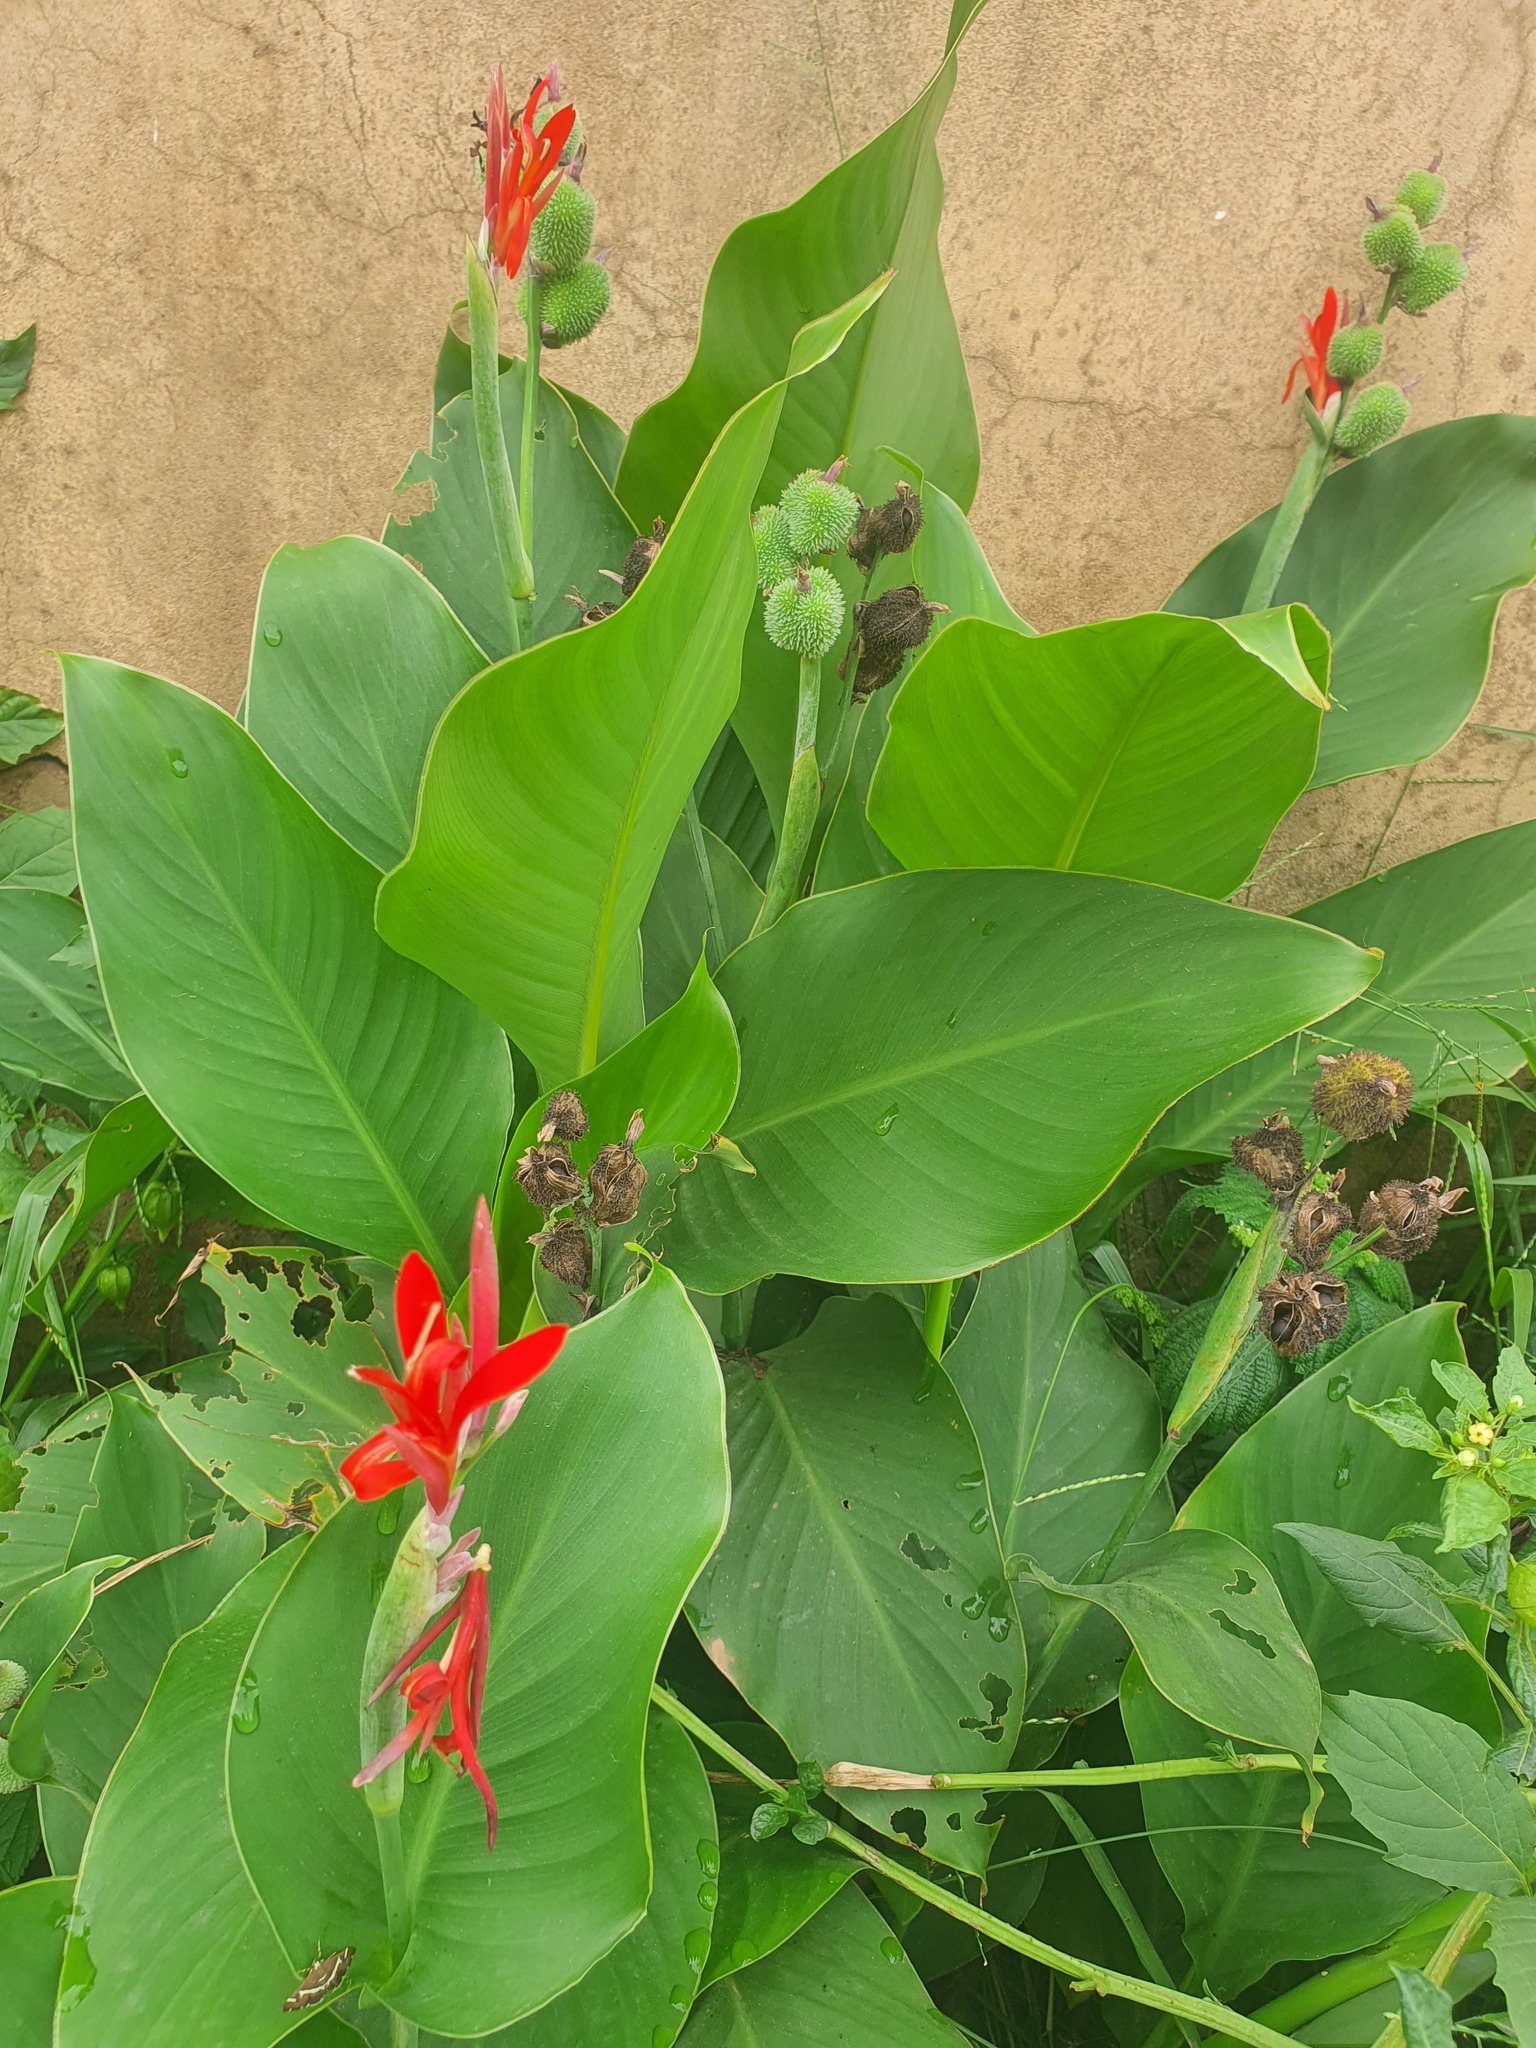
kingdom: Plantae
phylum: Tracheophyta
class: Liliopsida
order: Zingiberales
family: Cannaceae
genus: Canna
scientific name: Canna indica
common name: Indian shot
